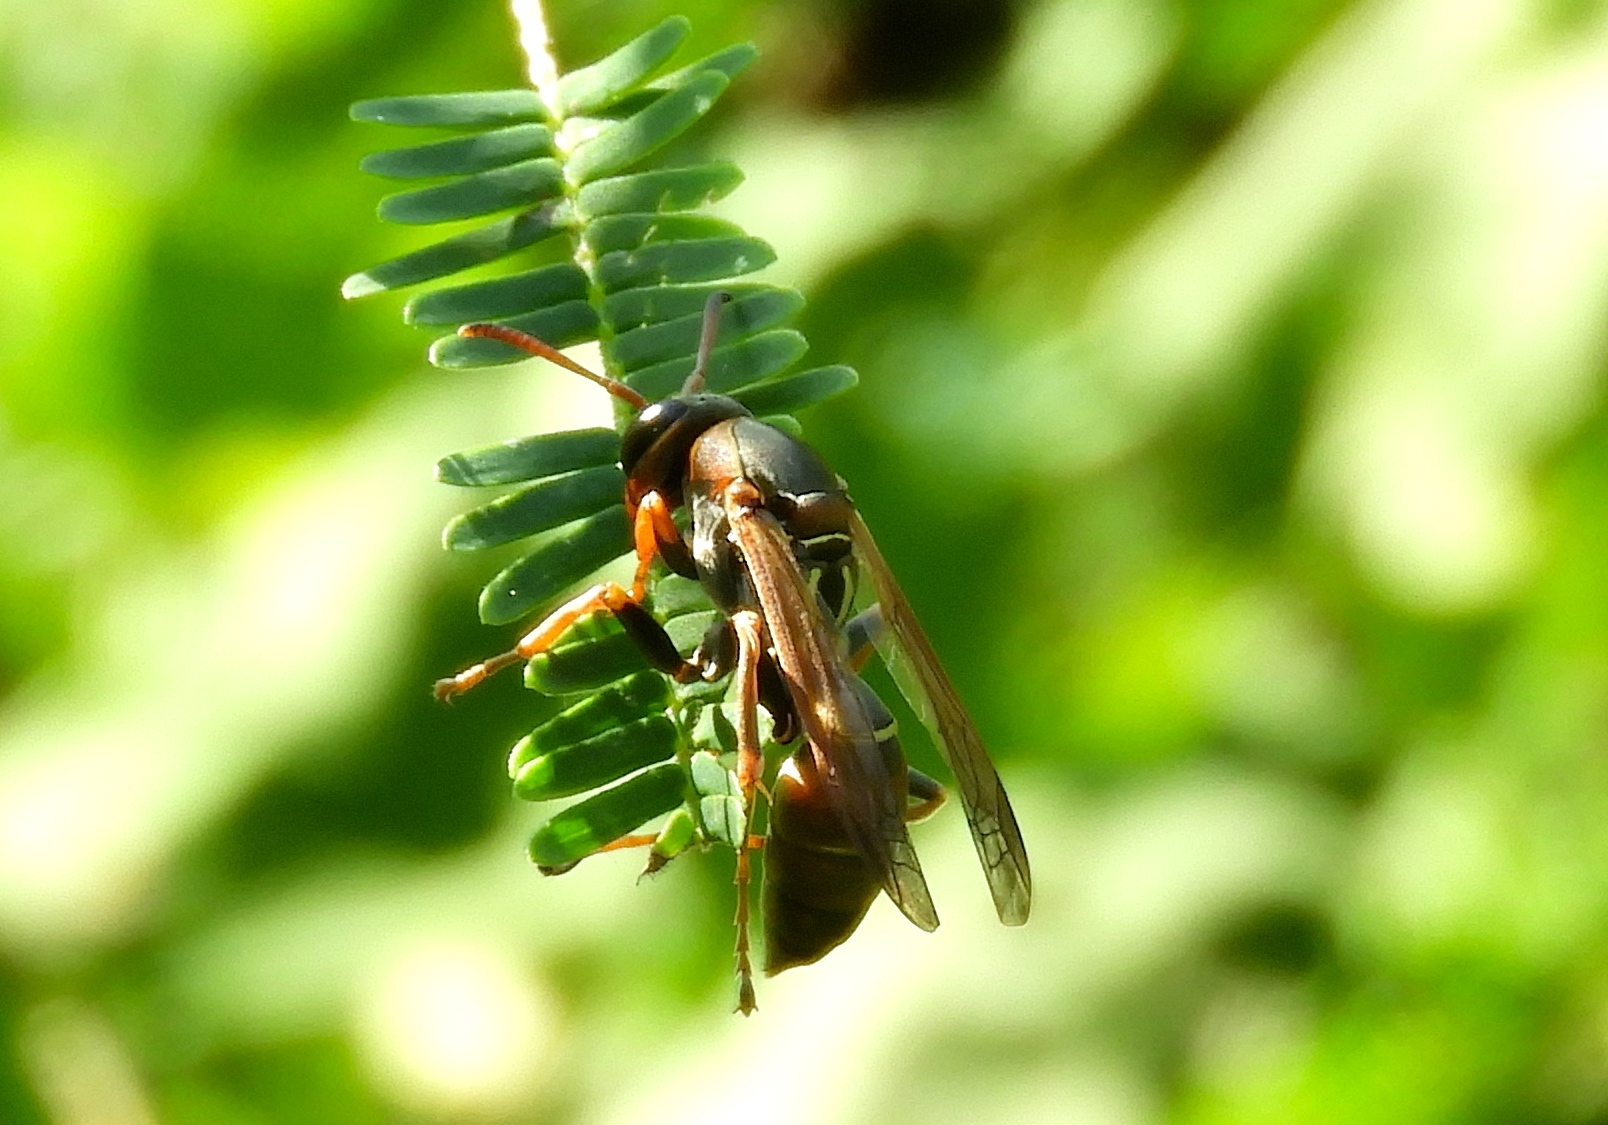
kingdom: Animalia
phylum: Arthropoda
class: Insecta
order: Hymenoptera
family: Eumenidae
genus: Polistes
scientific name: Polistes pacificus
